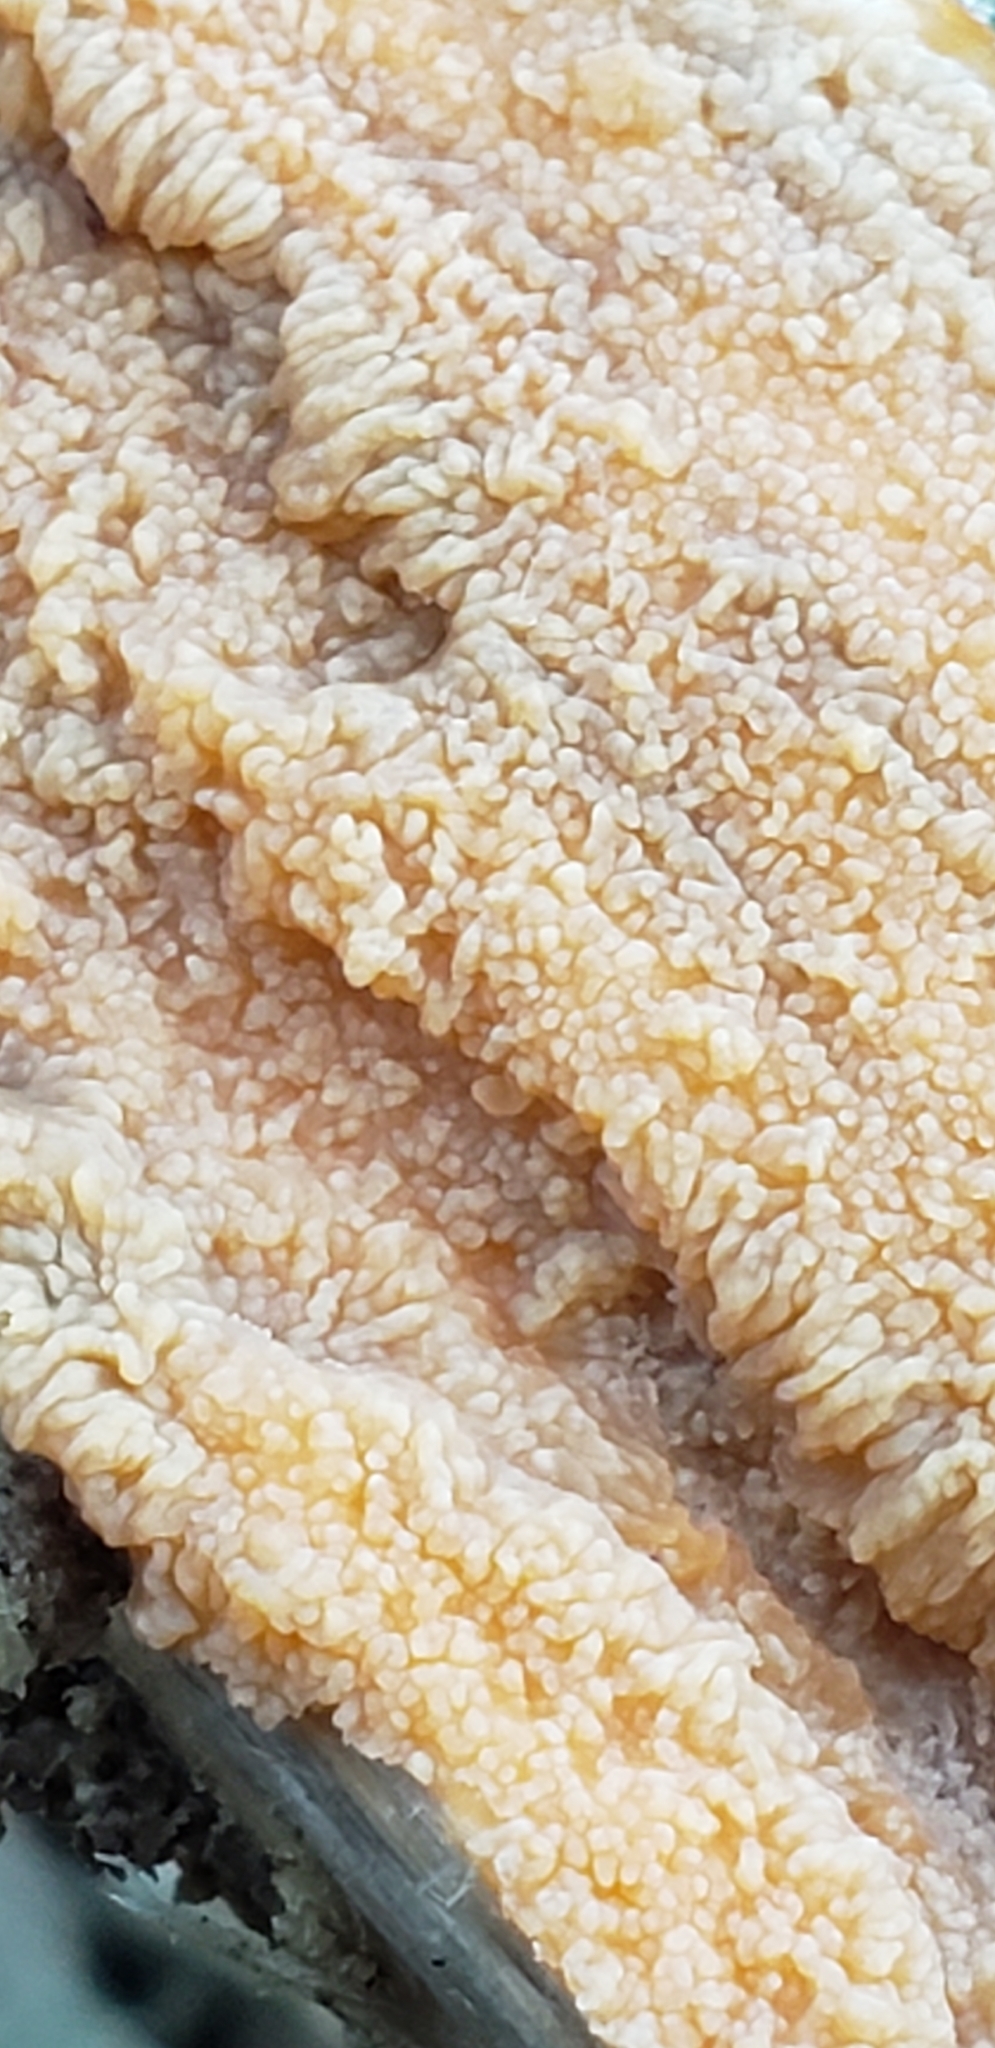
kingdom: Fungi
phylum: Basidiomycota
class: Agaricomycetes
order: Polyporales
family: Meruliaceae
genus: Phlebia
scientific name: Phlebia radiata
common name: Wrinkled crust
